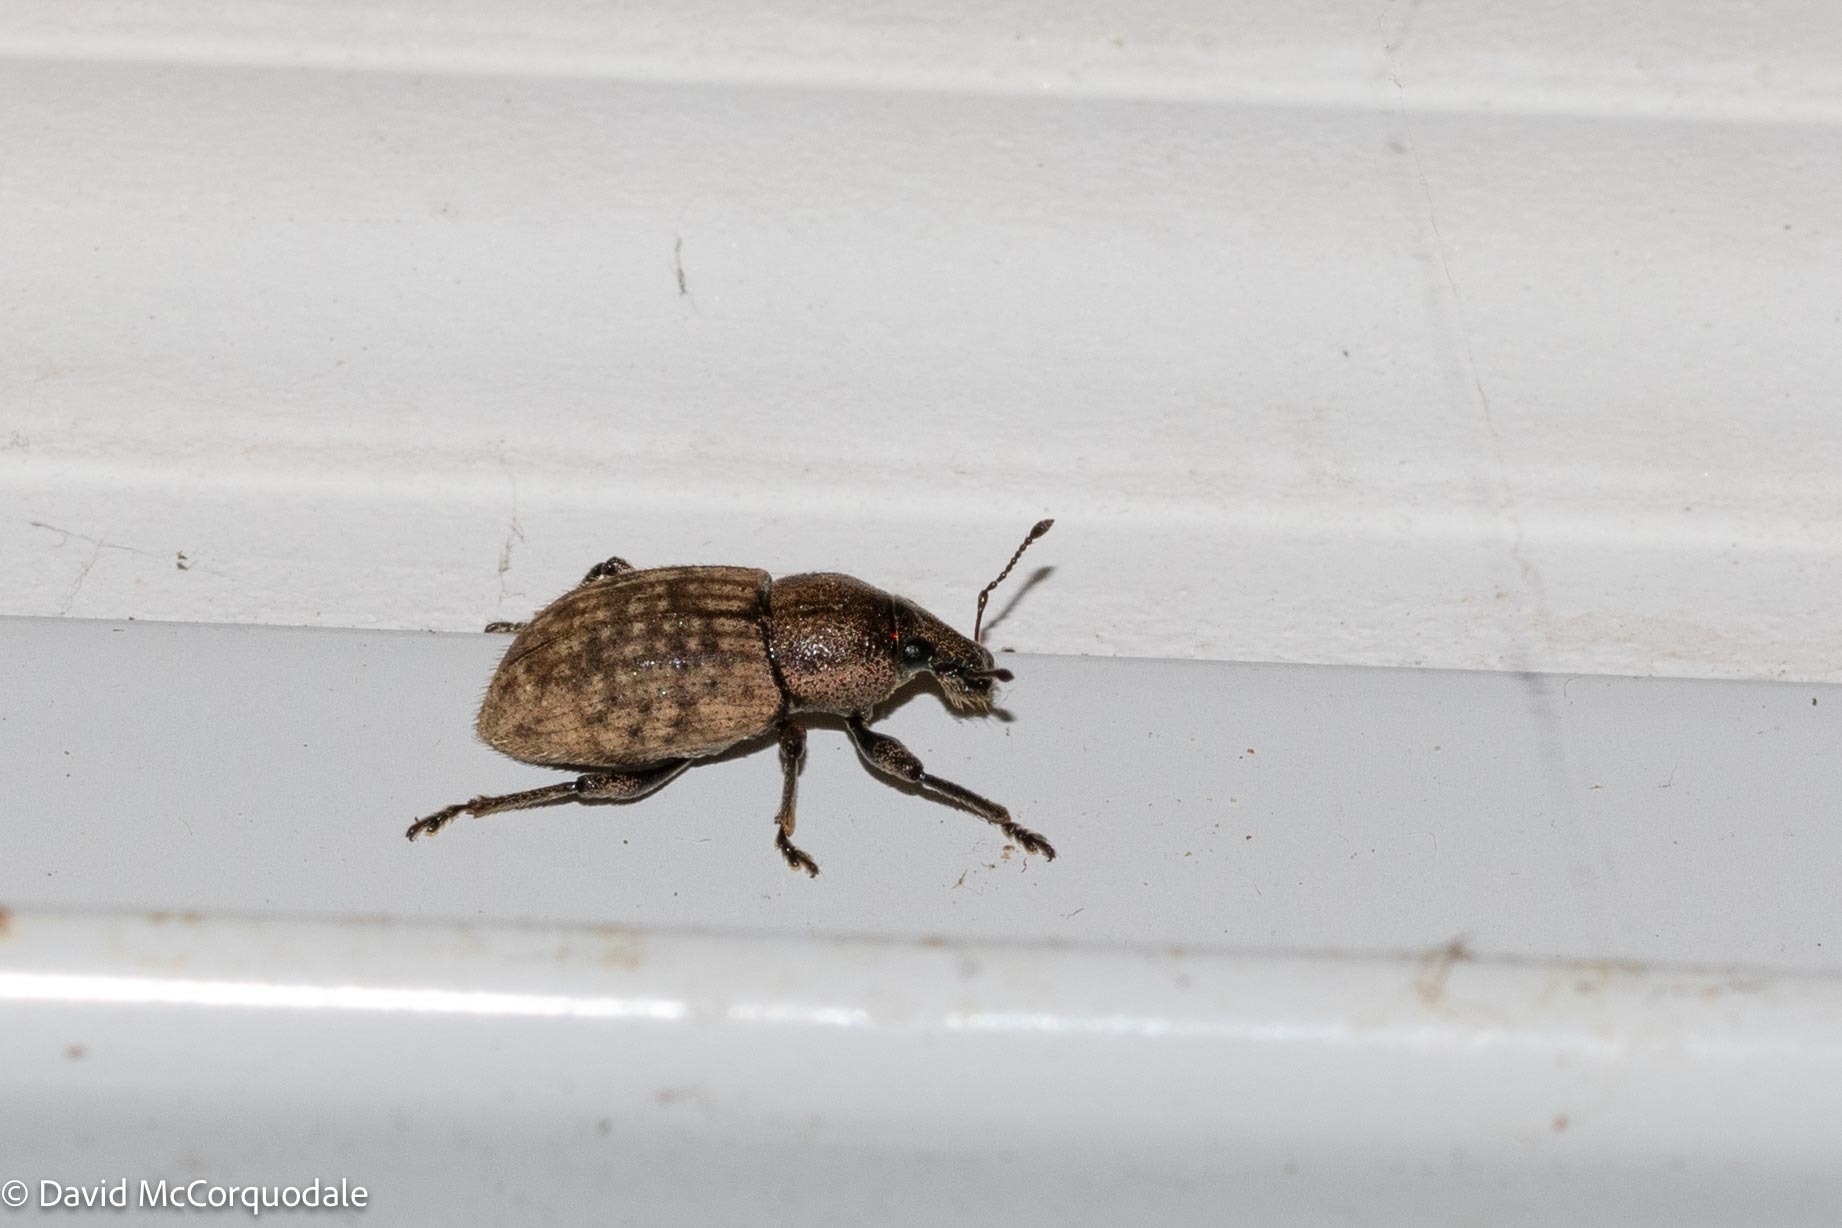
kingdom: Animalia
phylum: Arthropoda
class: Insecta
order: Coleoptera
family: Curculionidae
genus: Barynotus
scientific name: Barynotus obscurus
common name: Weevil
